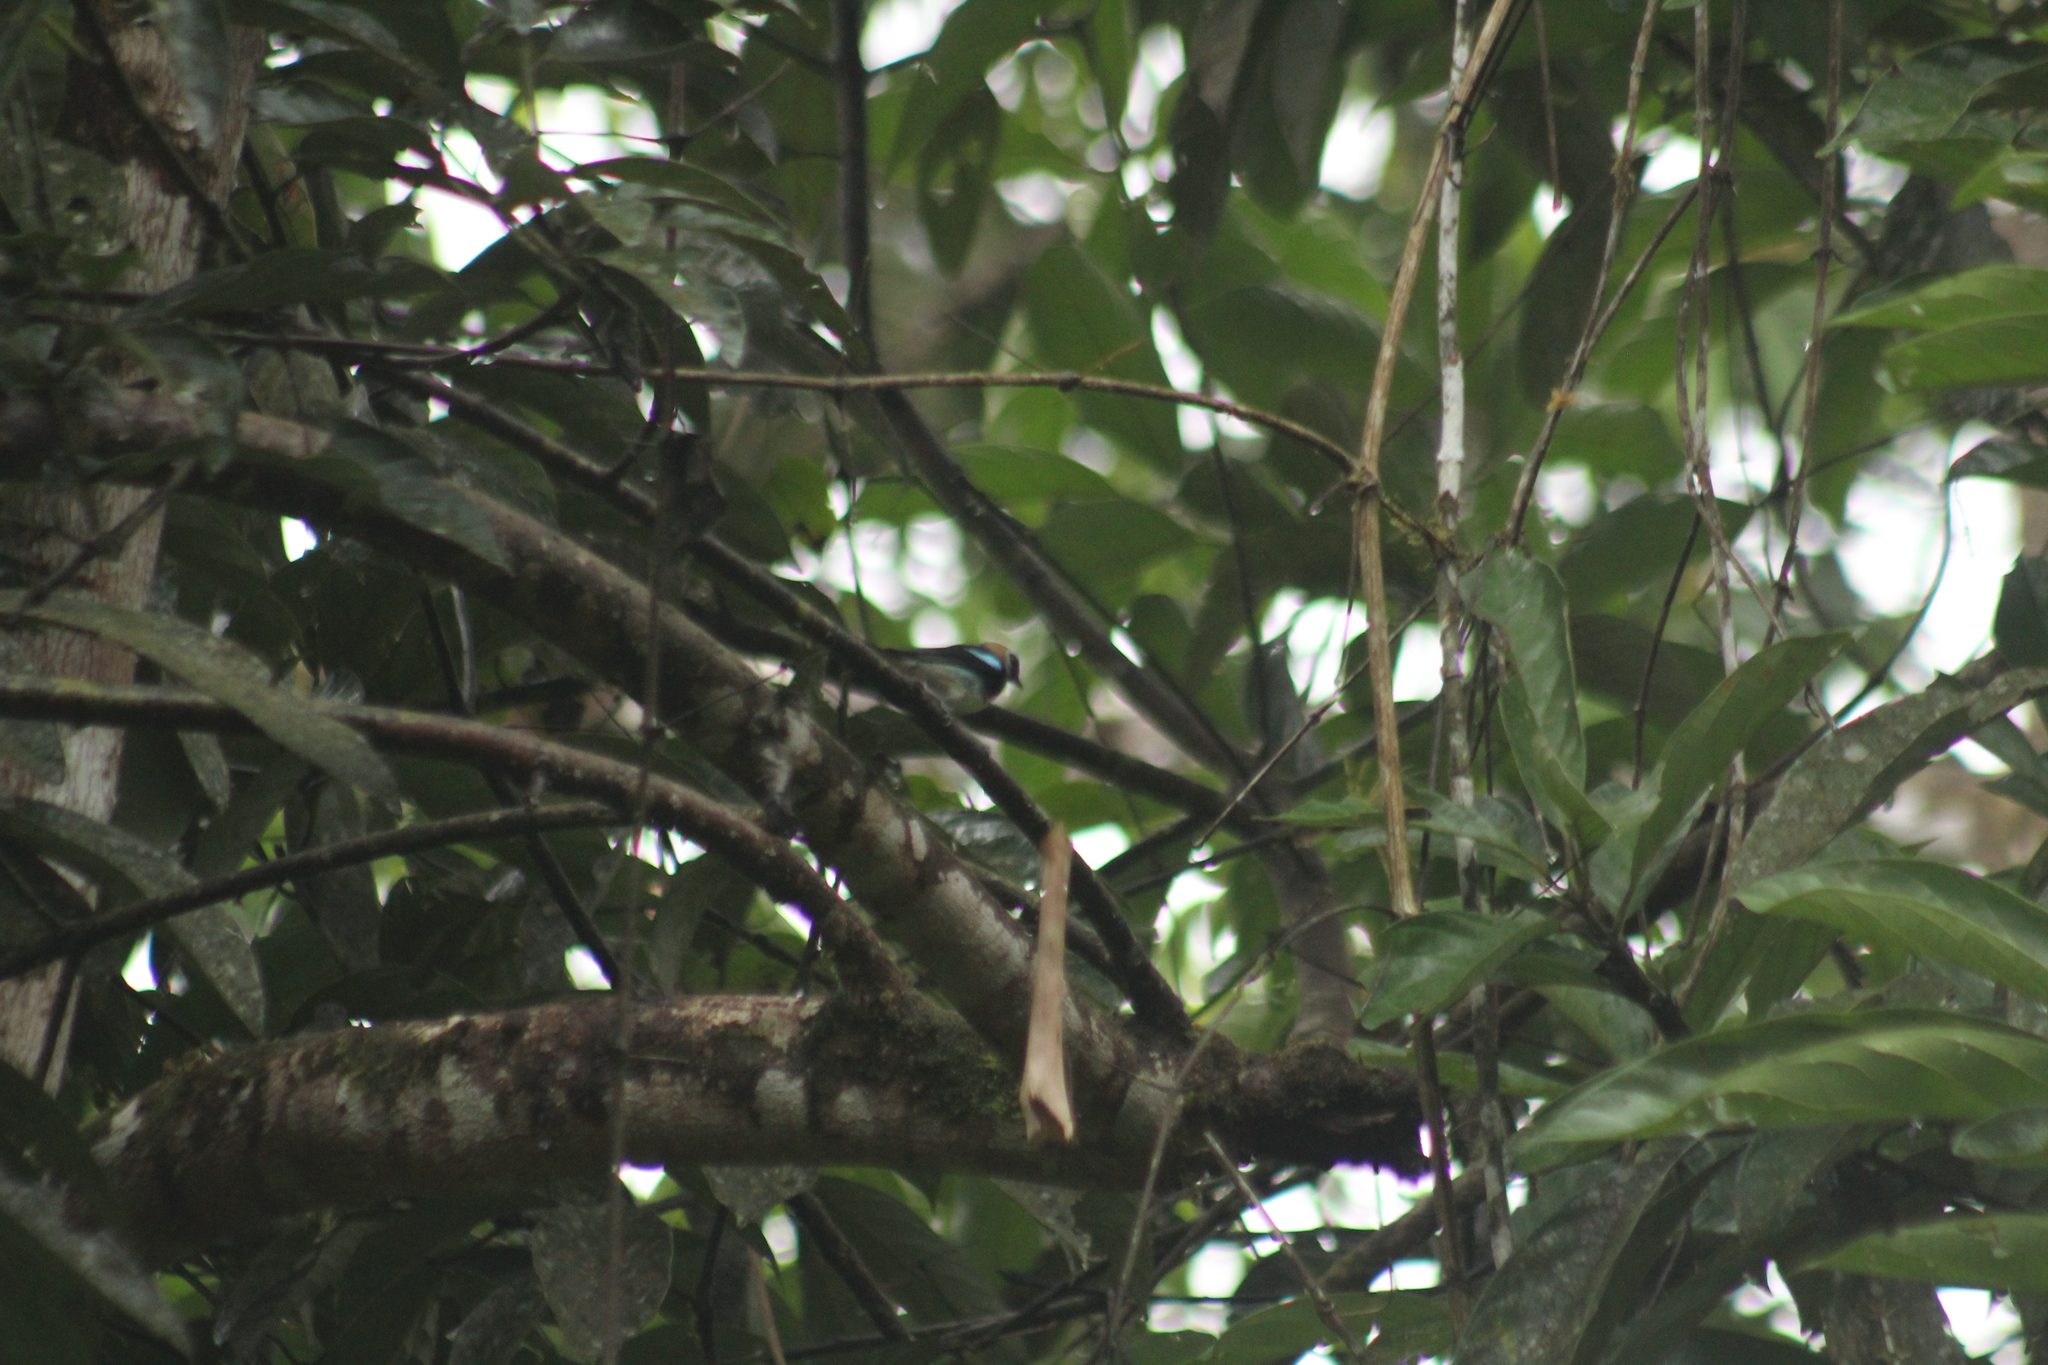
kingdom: Animalia
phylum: Chordata
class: Aves
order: Passeriformes
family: Thraupidae
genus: Stilpnia
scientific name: Stilpnia larvata
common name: Golden-hooded tanager
